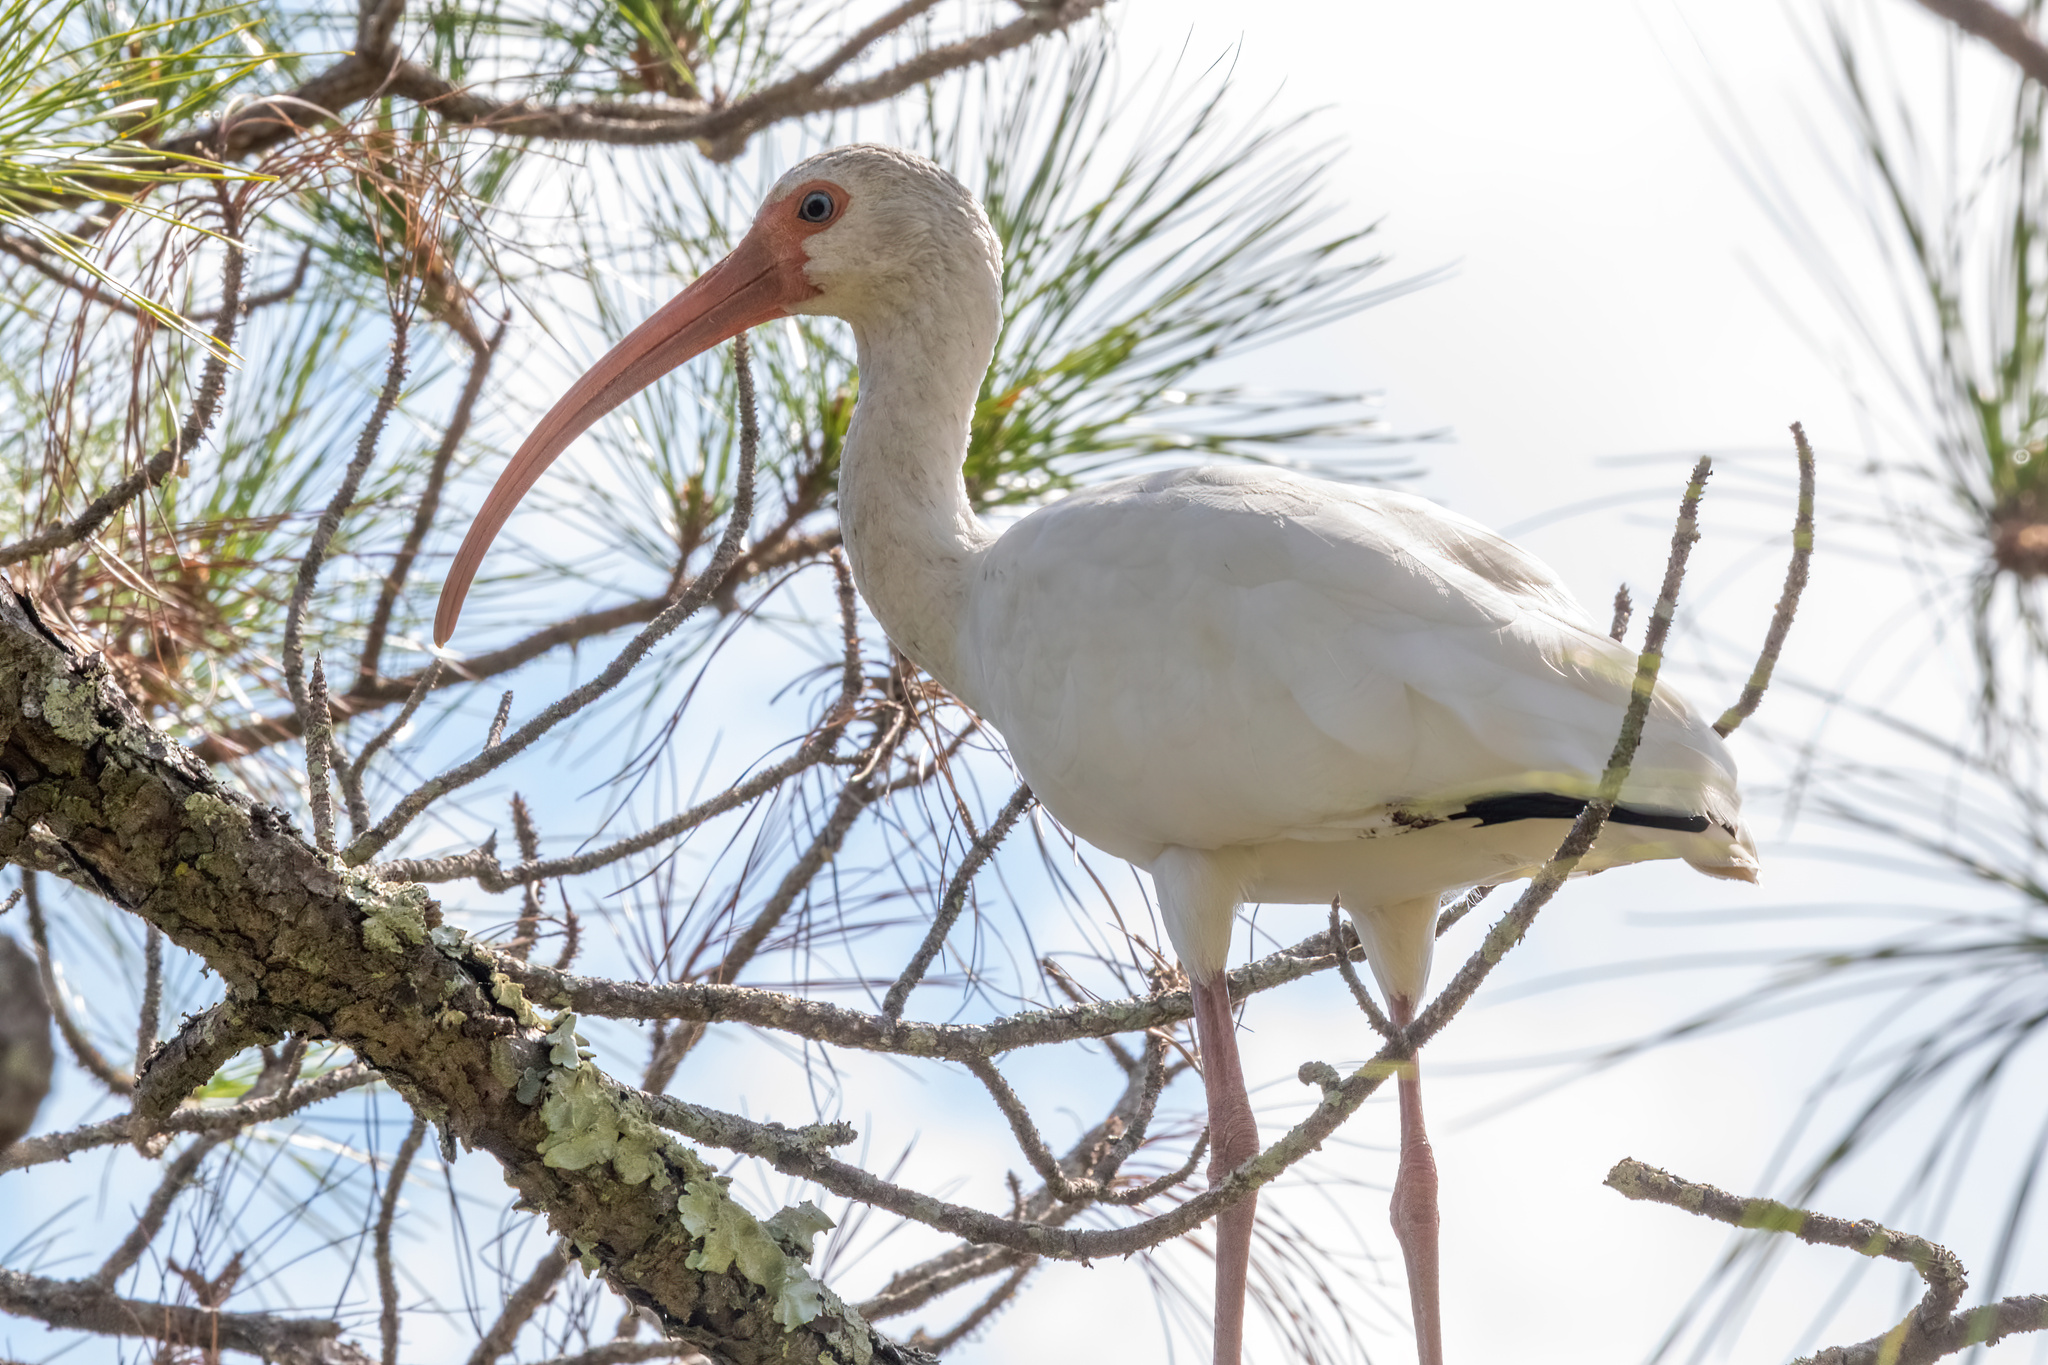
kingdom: Animalia
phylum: Chordata
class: Aves
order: Pelecaniformes
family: Threskiornithidae
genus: Eudocimus
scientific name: Eudocimus albus
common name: White ibis
